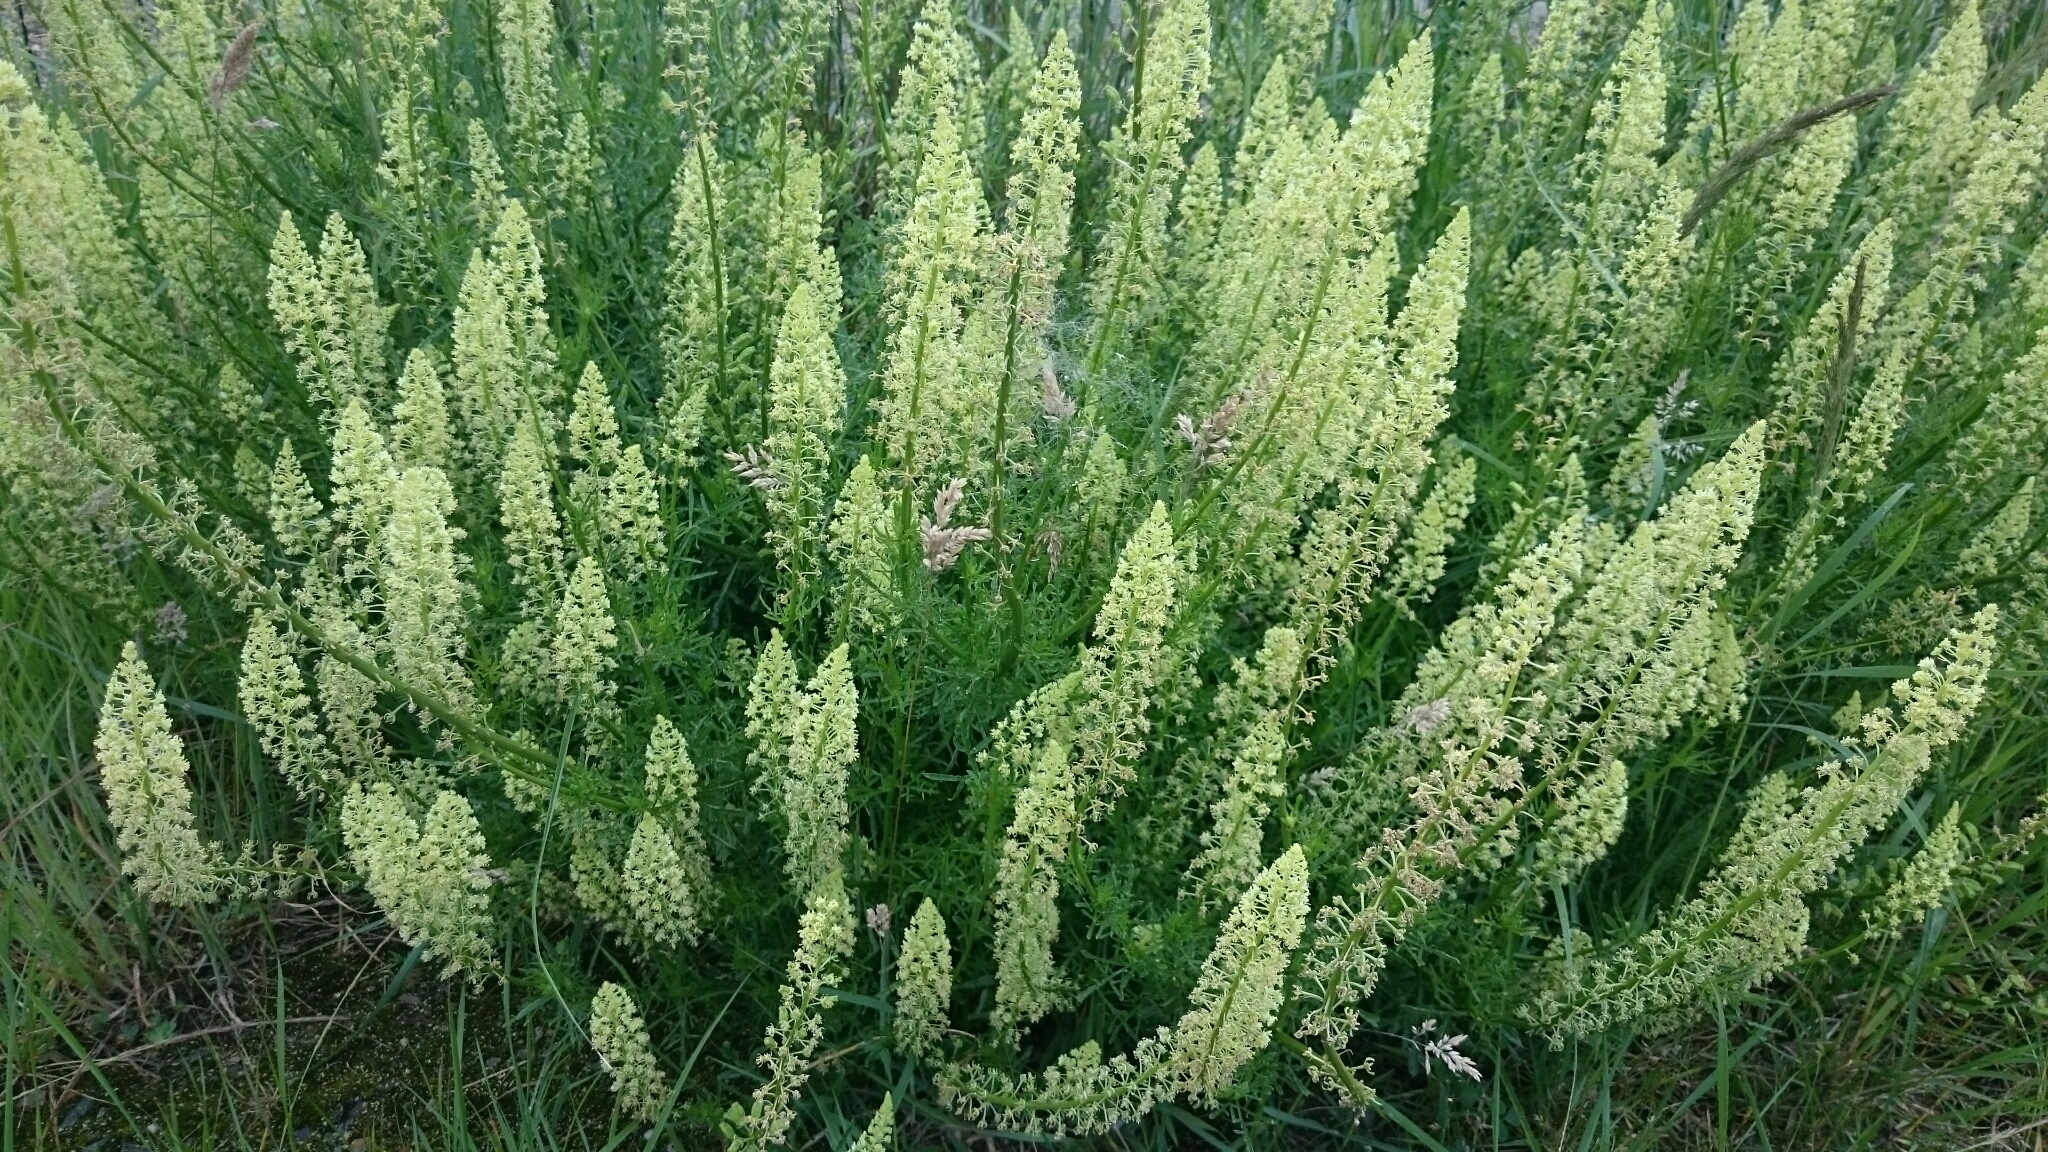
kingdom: Plantae
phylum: Tracheophyta
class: Magnoliopsida
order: Brassicales
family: Resedaceae
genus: Reseda
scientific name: Reseda lutea
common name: Wild mignonette
